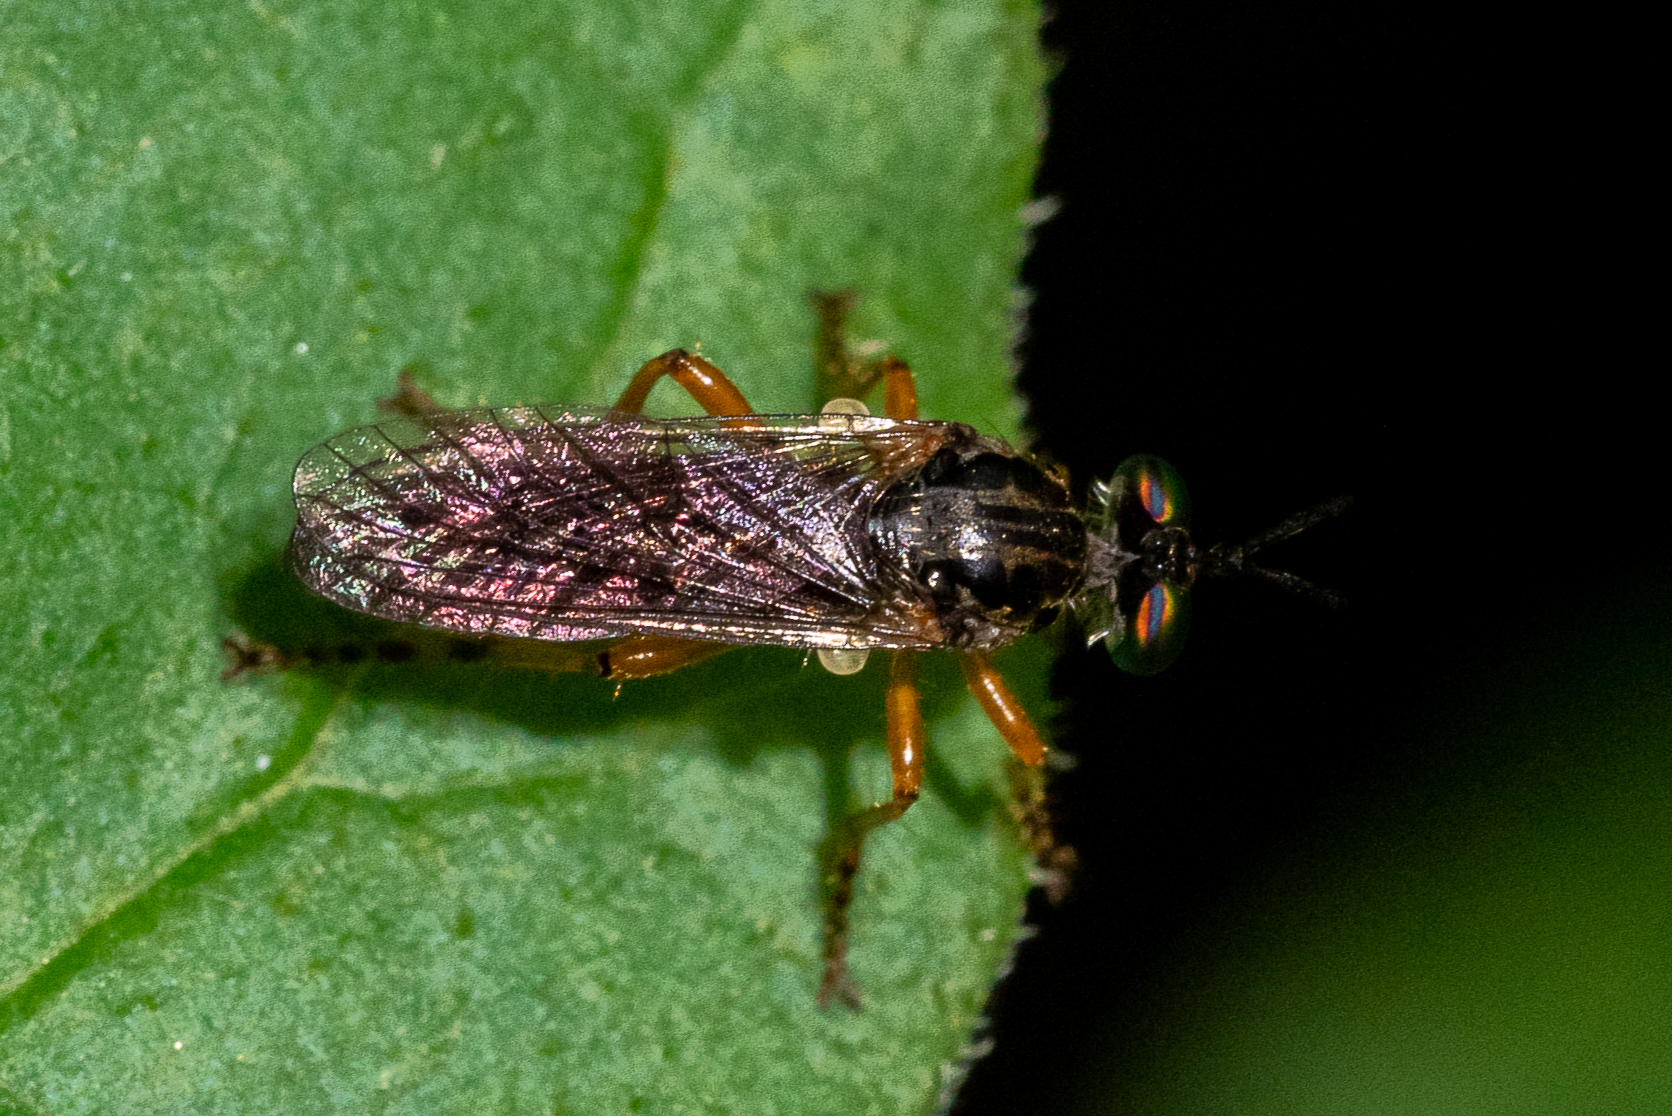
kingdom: Animalia
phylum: Arthropoda
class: Insecta
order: Diptera
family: Asilidae
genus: Taracticus
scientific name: Taracticus octopunctatus
